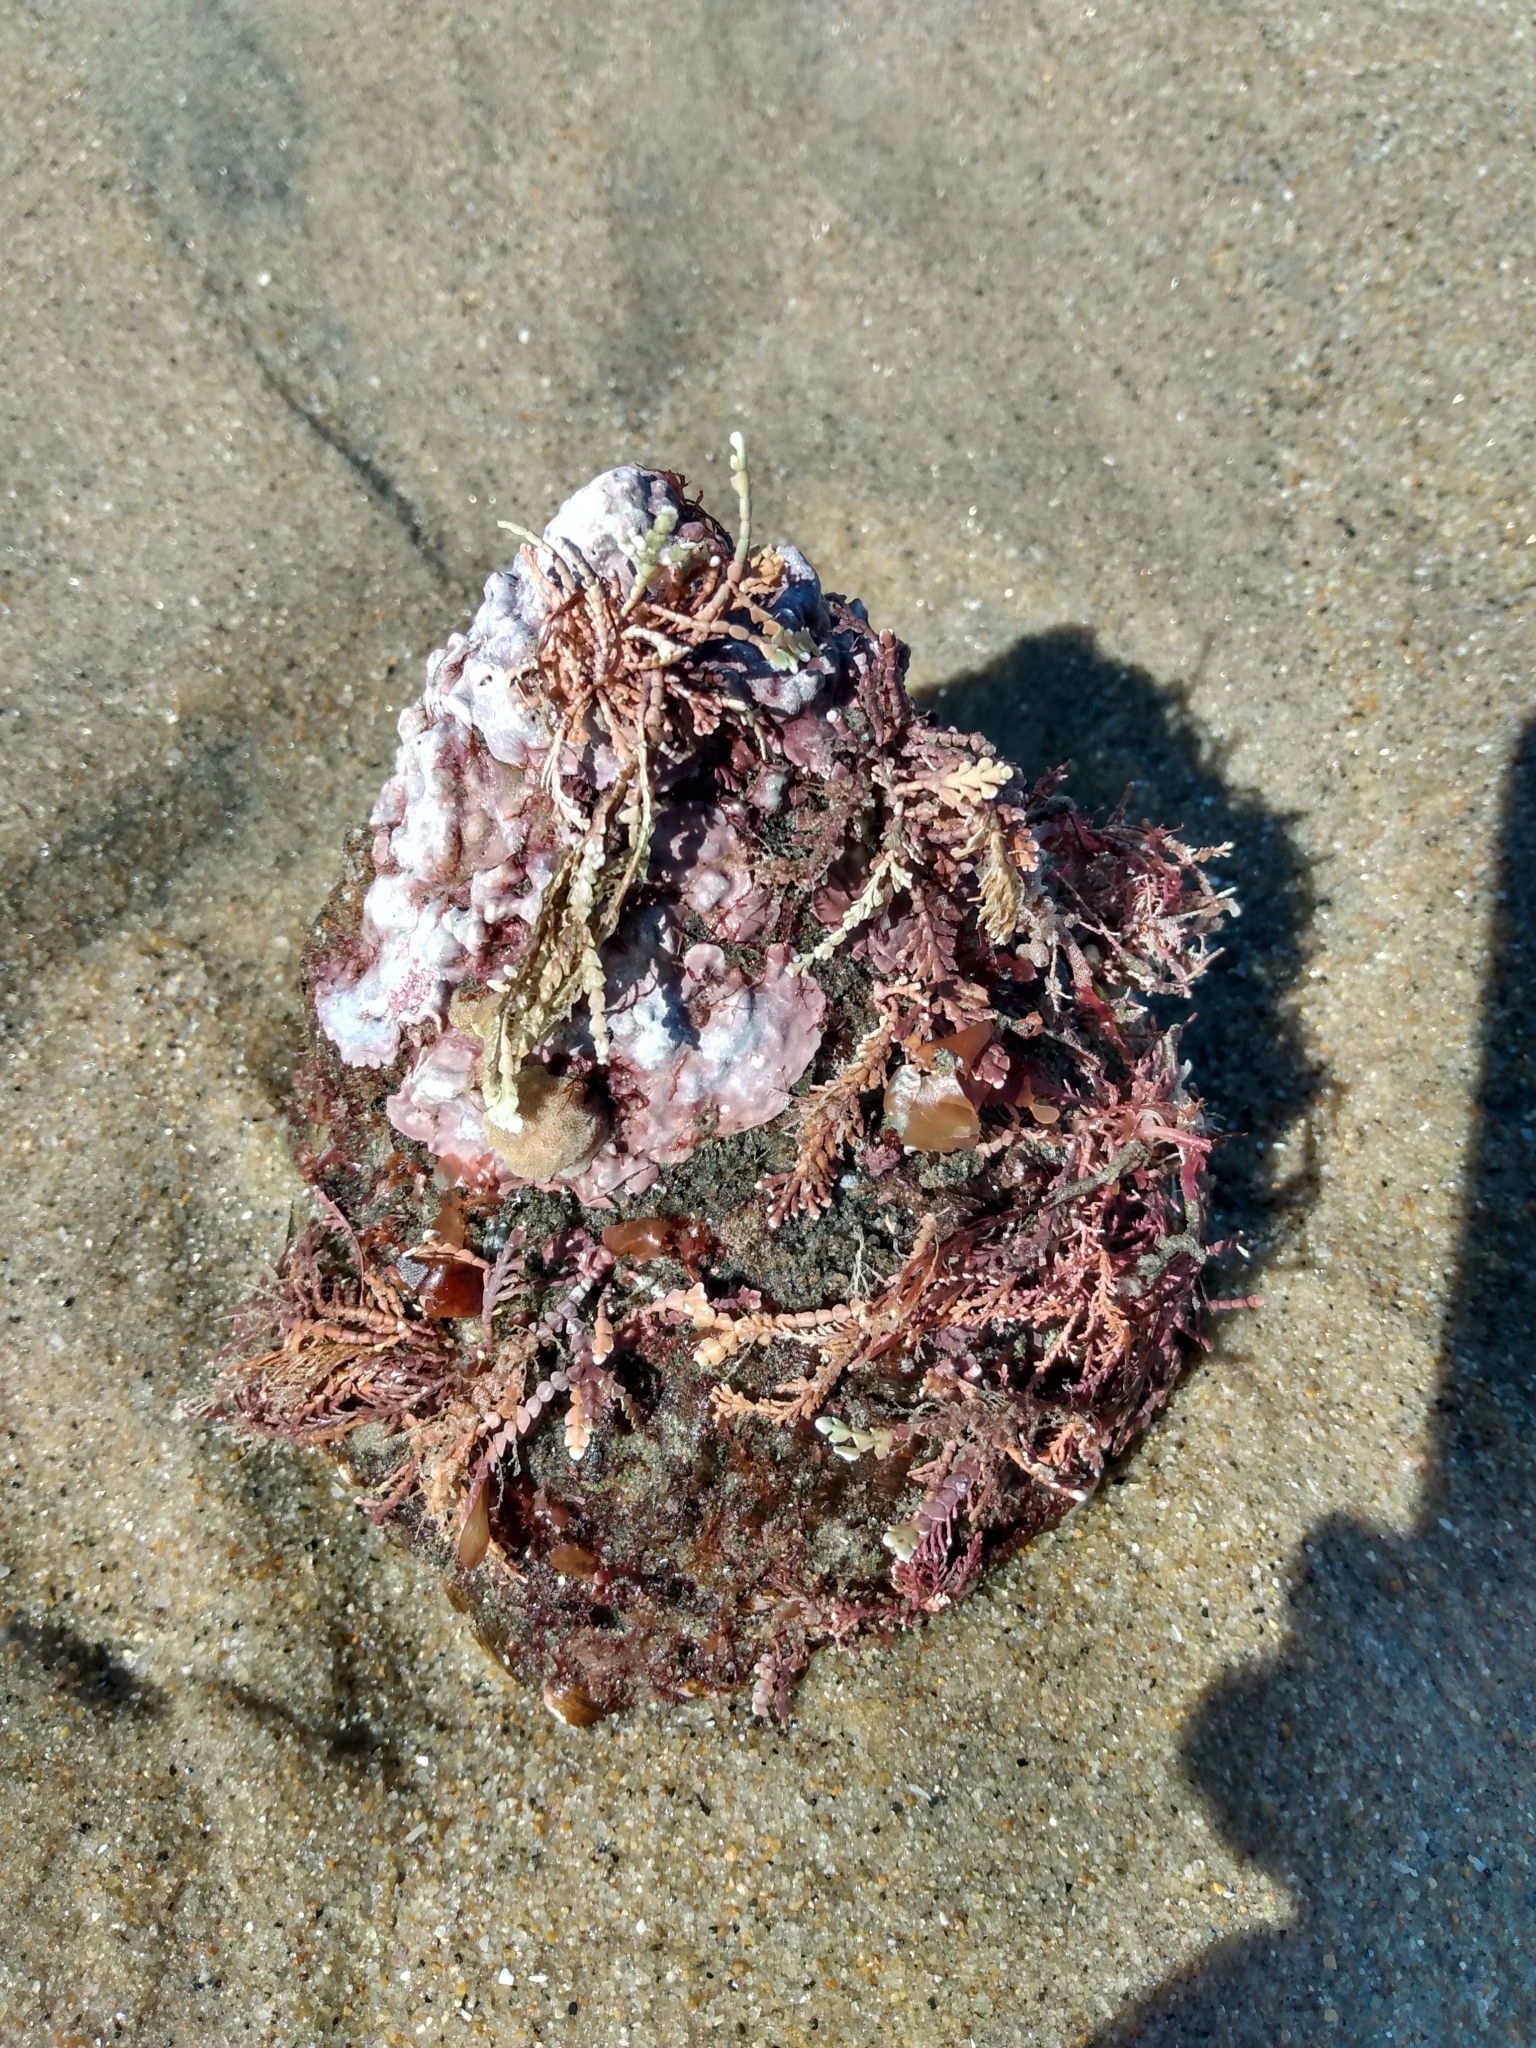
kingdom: Animalia
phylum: Mollusca
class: Gastropoda
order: Trochida
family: Turbinidae
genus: Megastraea
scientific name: Megastraea undosa
